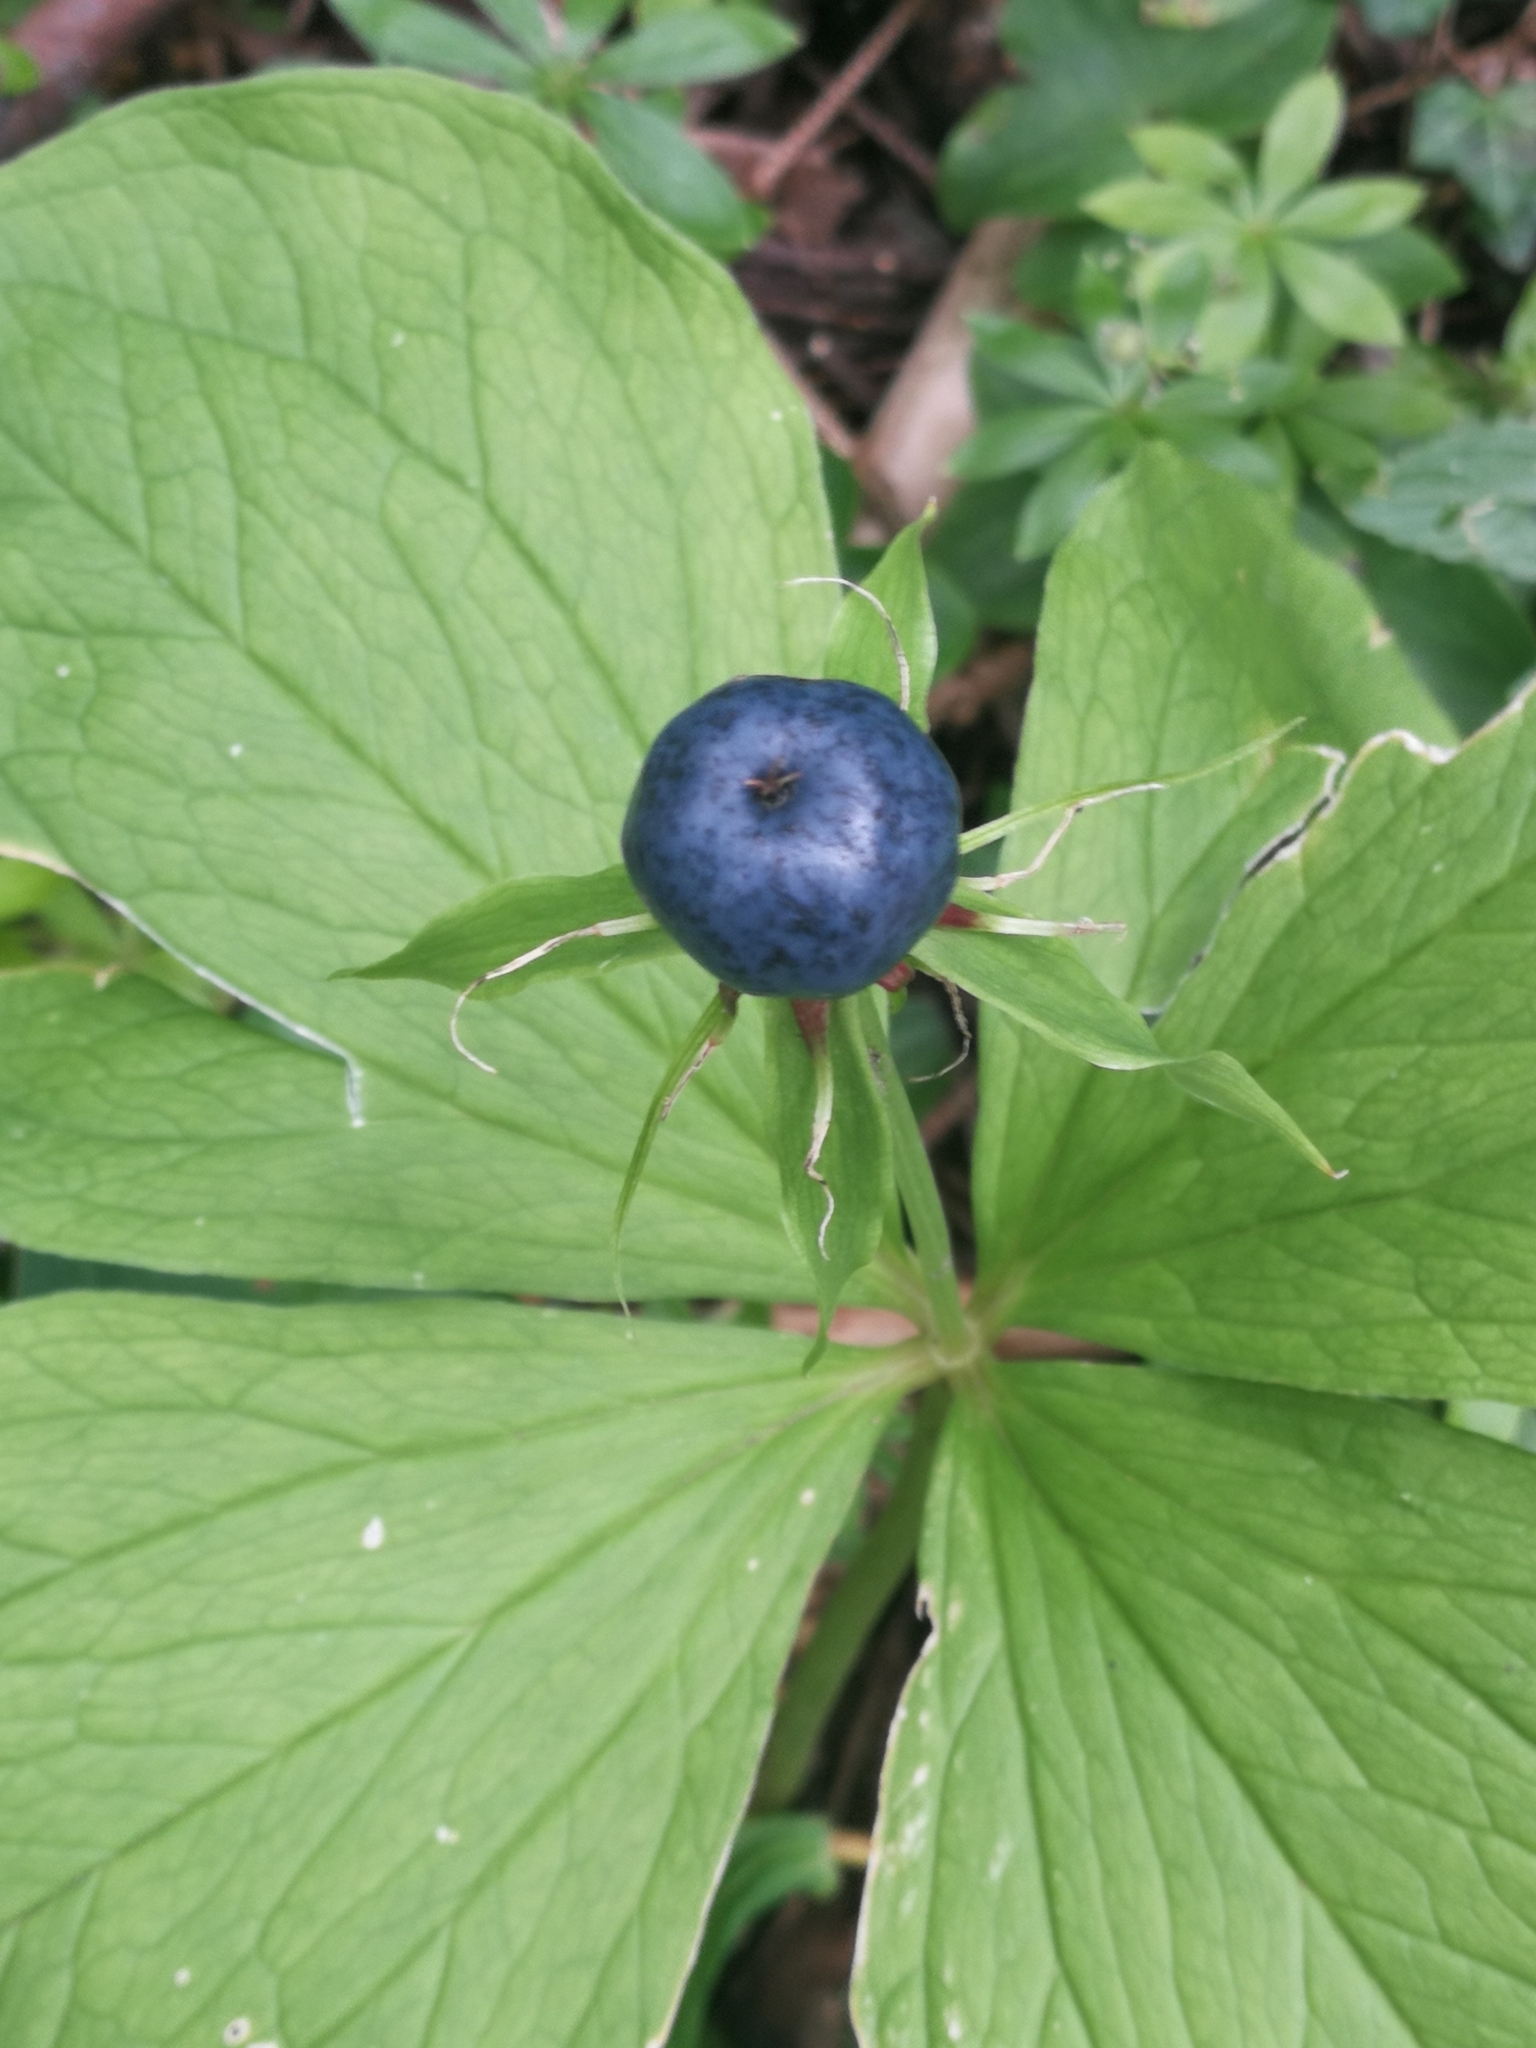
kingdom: Plantae
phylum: Tracheophyta
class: Liliopsida
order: Liliales
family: Melanthiaceae
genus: Paris
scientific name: Paris quadrifolia
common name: Herb-paris
